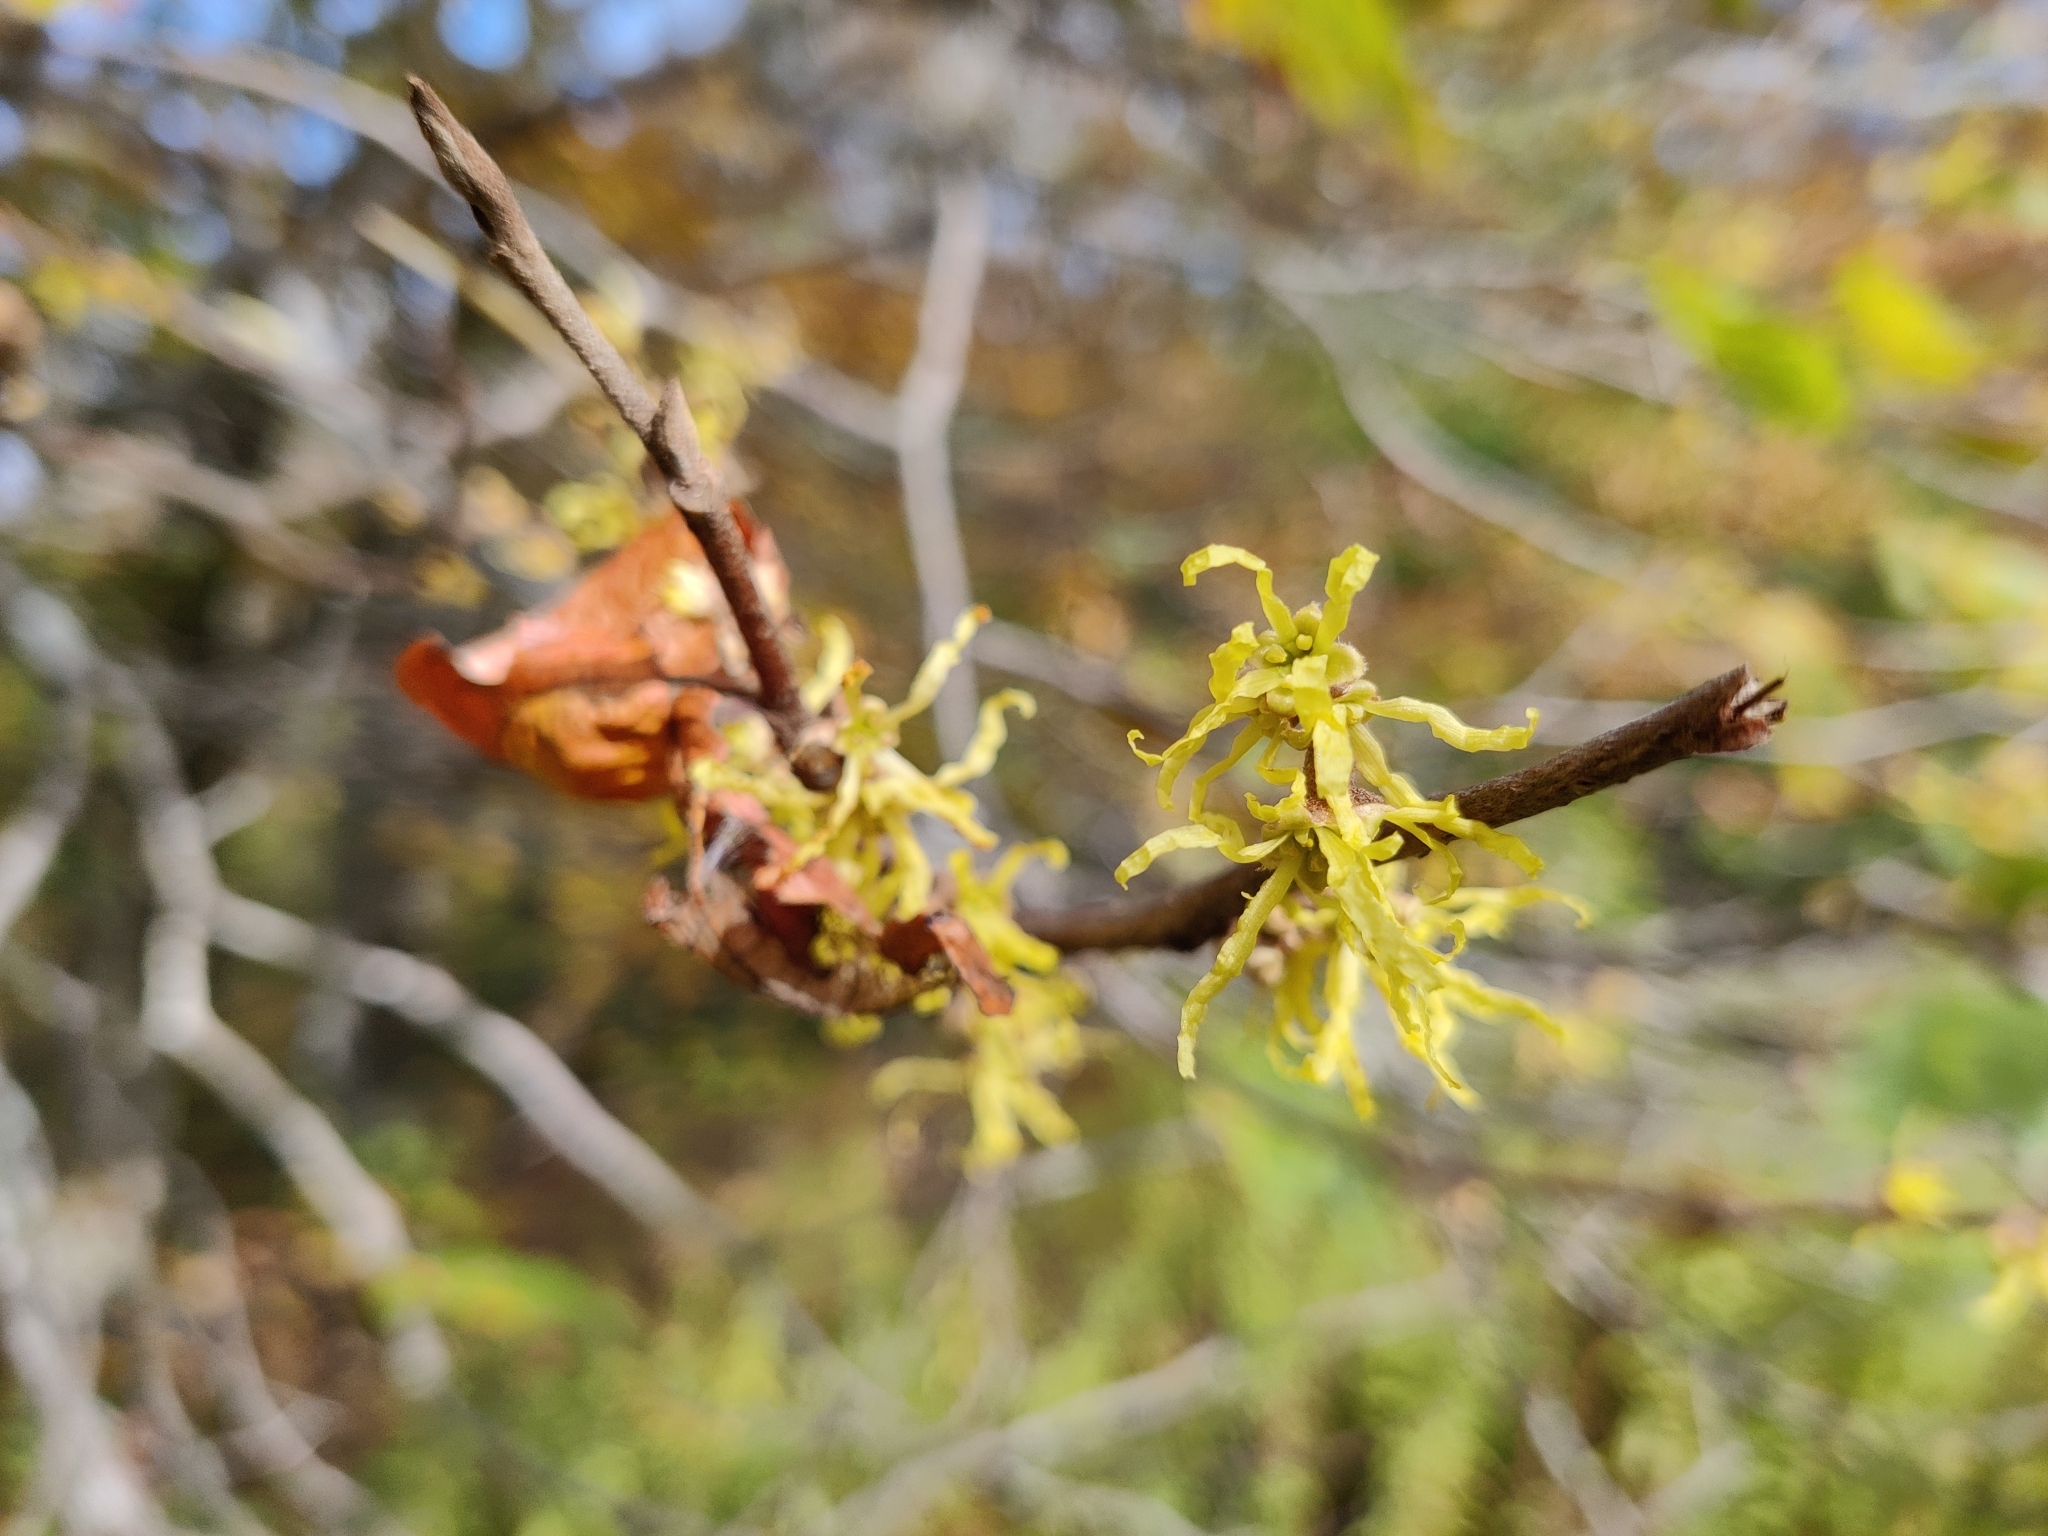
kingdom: Plantae
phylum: Tracheophyta
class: Magnoliopsida
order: Saxifragales
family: Hamamelidaceae
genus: Hamamelis
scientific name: Hamamelis virginiana
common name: Witch-hazel
